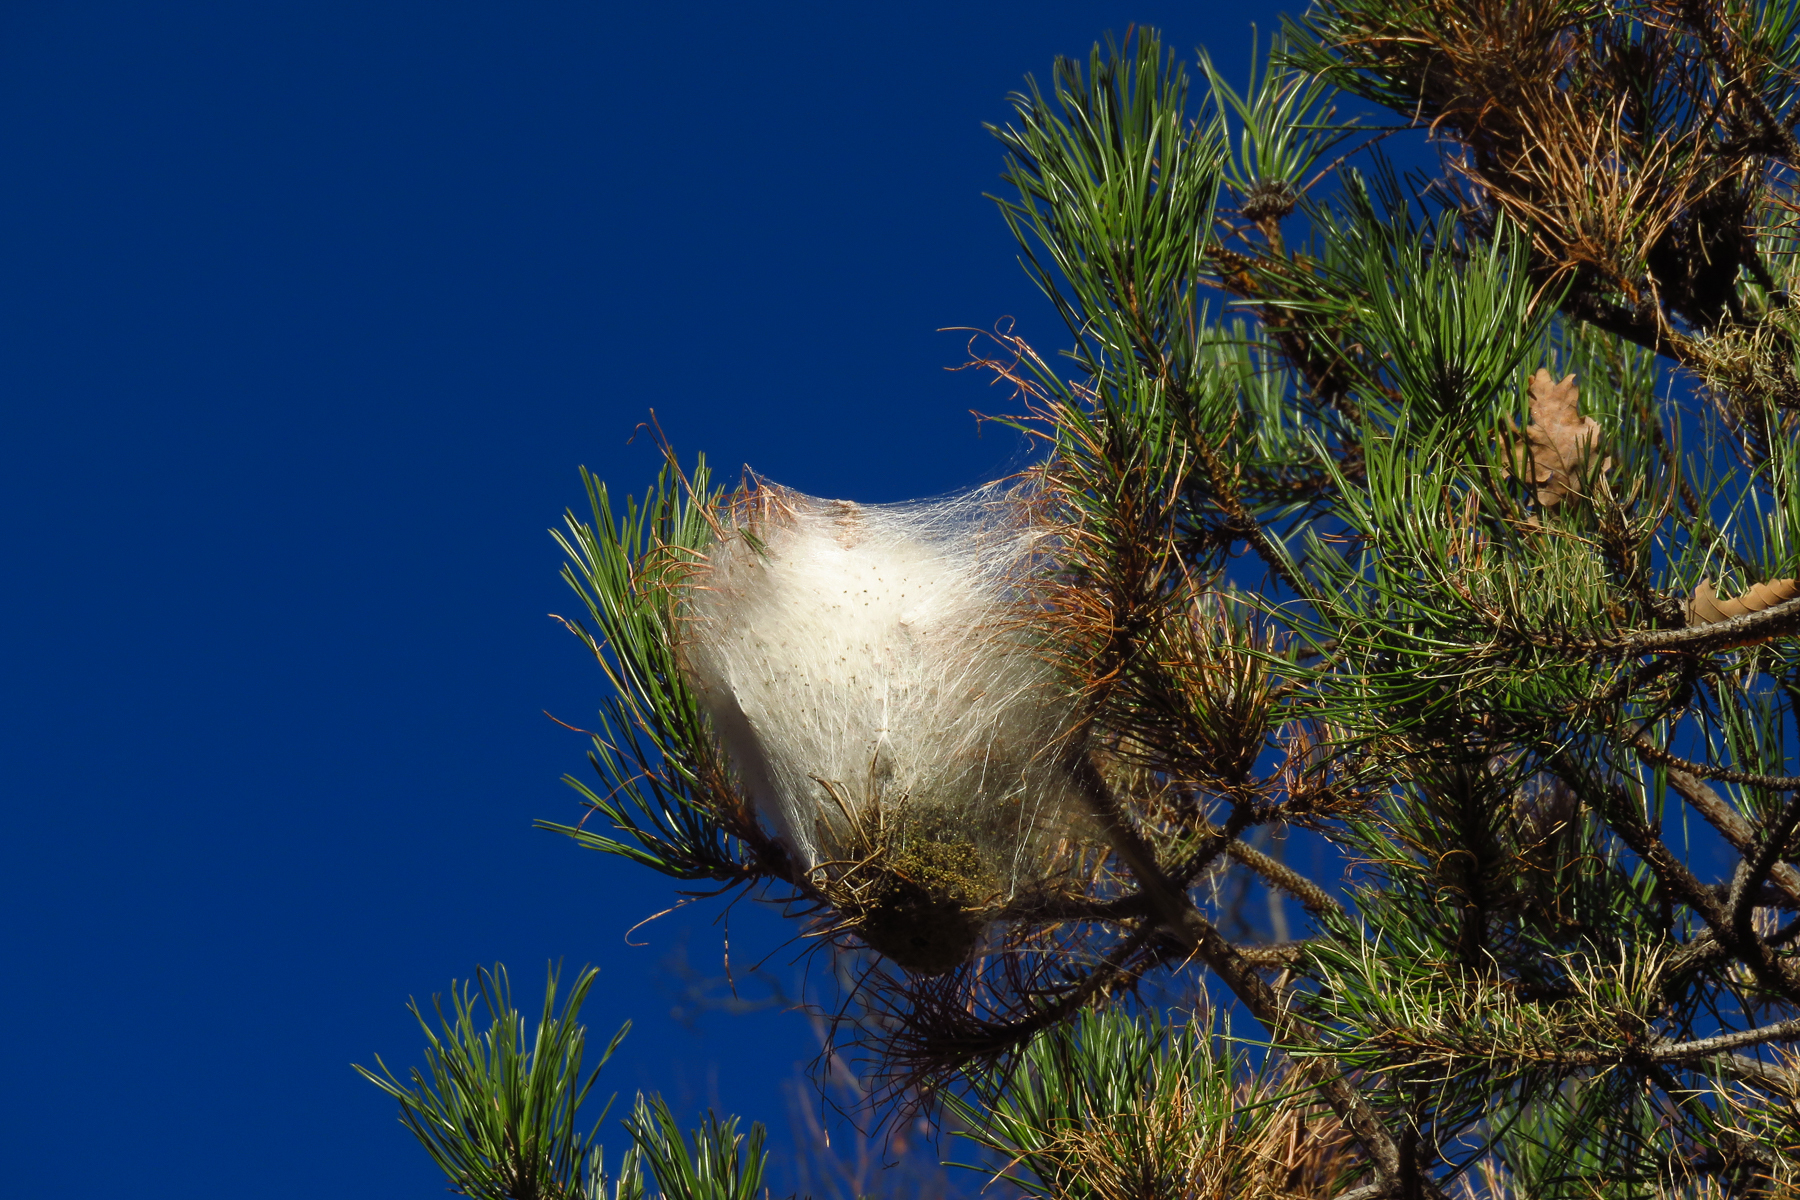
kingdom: Animalia
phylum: Arthropoda
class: Insecta
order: Lepidoptera
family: Notodontidae
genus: Thaumetopoea
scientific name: Thaumetopoea pityocampa
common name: Pine processionary
